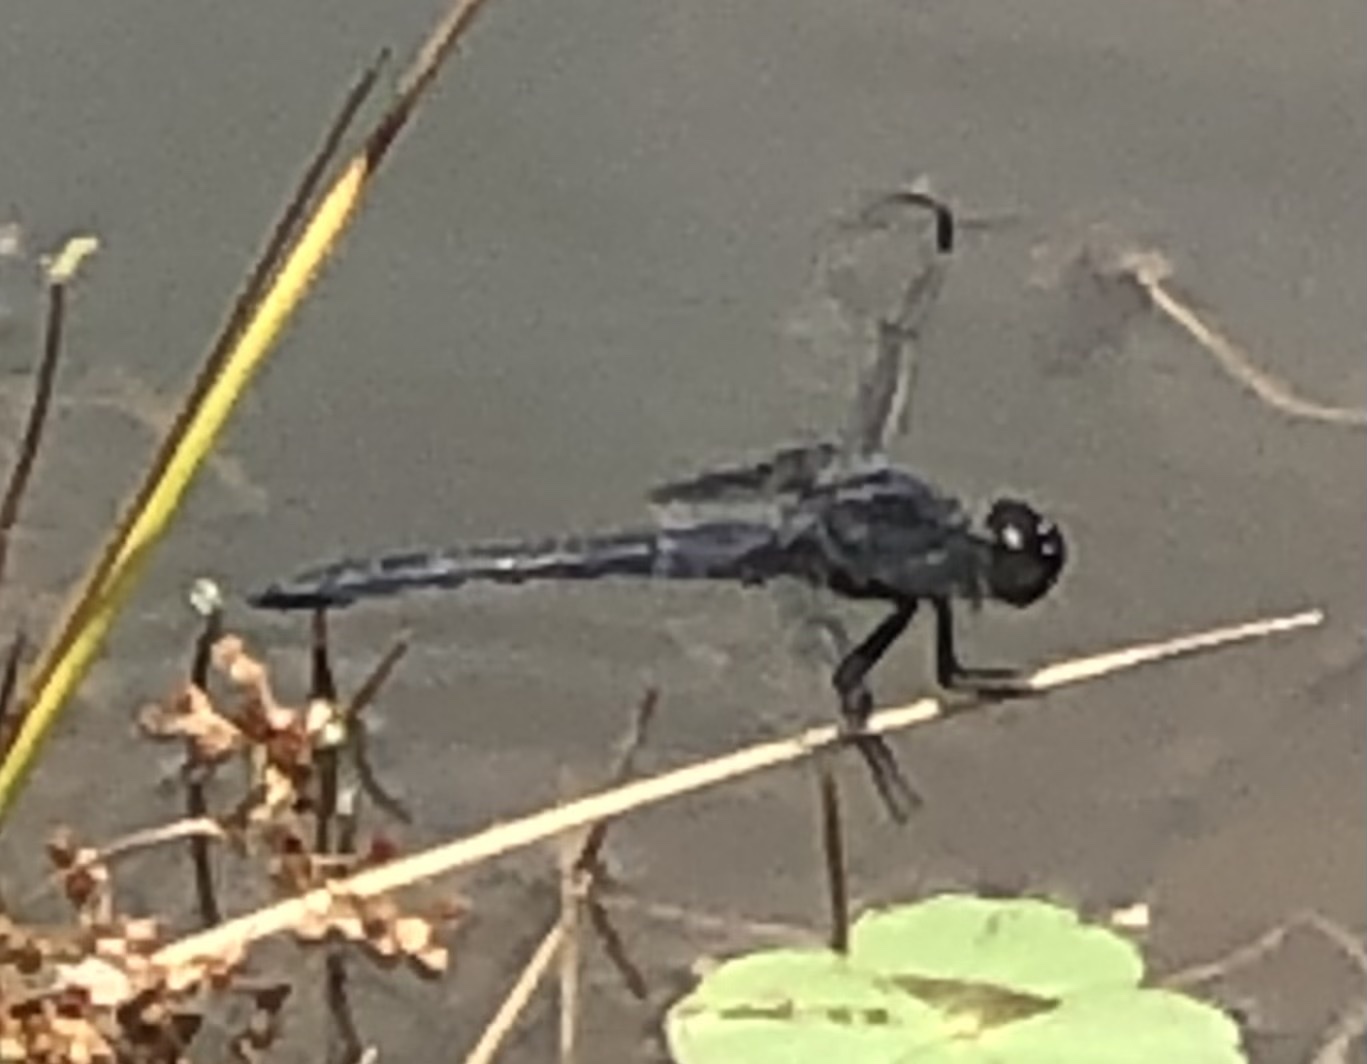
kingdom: Animalia
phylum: Arthropoda
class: Insecta
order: Odonata
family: Libellulidae
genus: Libellula
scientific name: Libellula incesta
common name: Slaty skimmer
